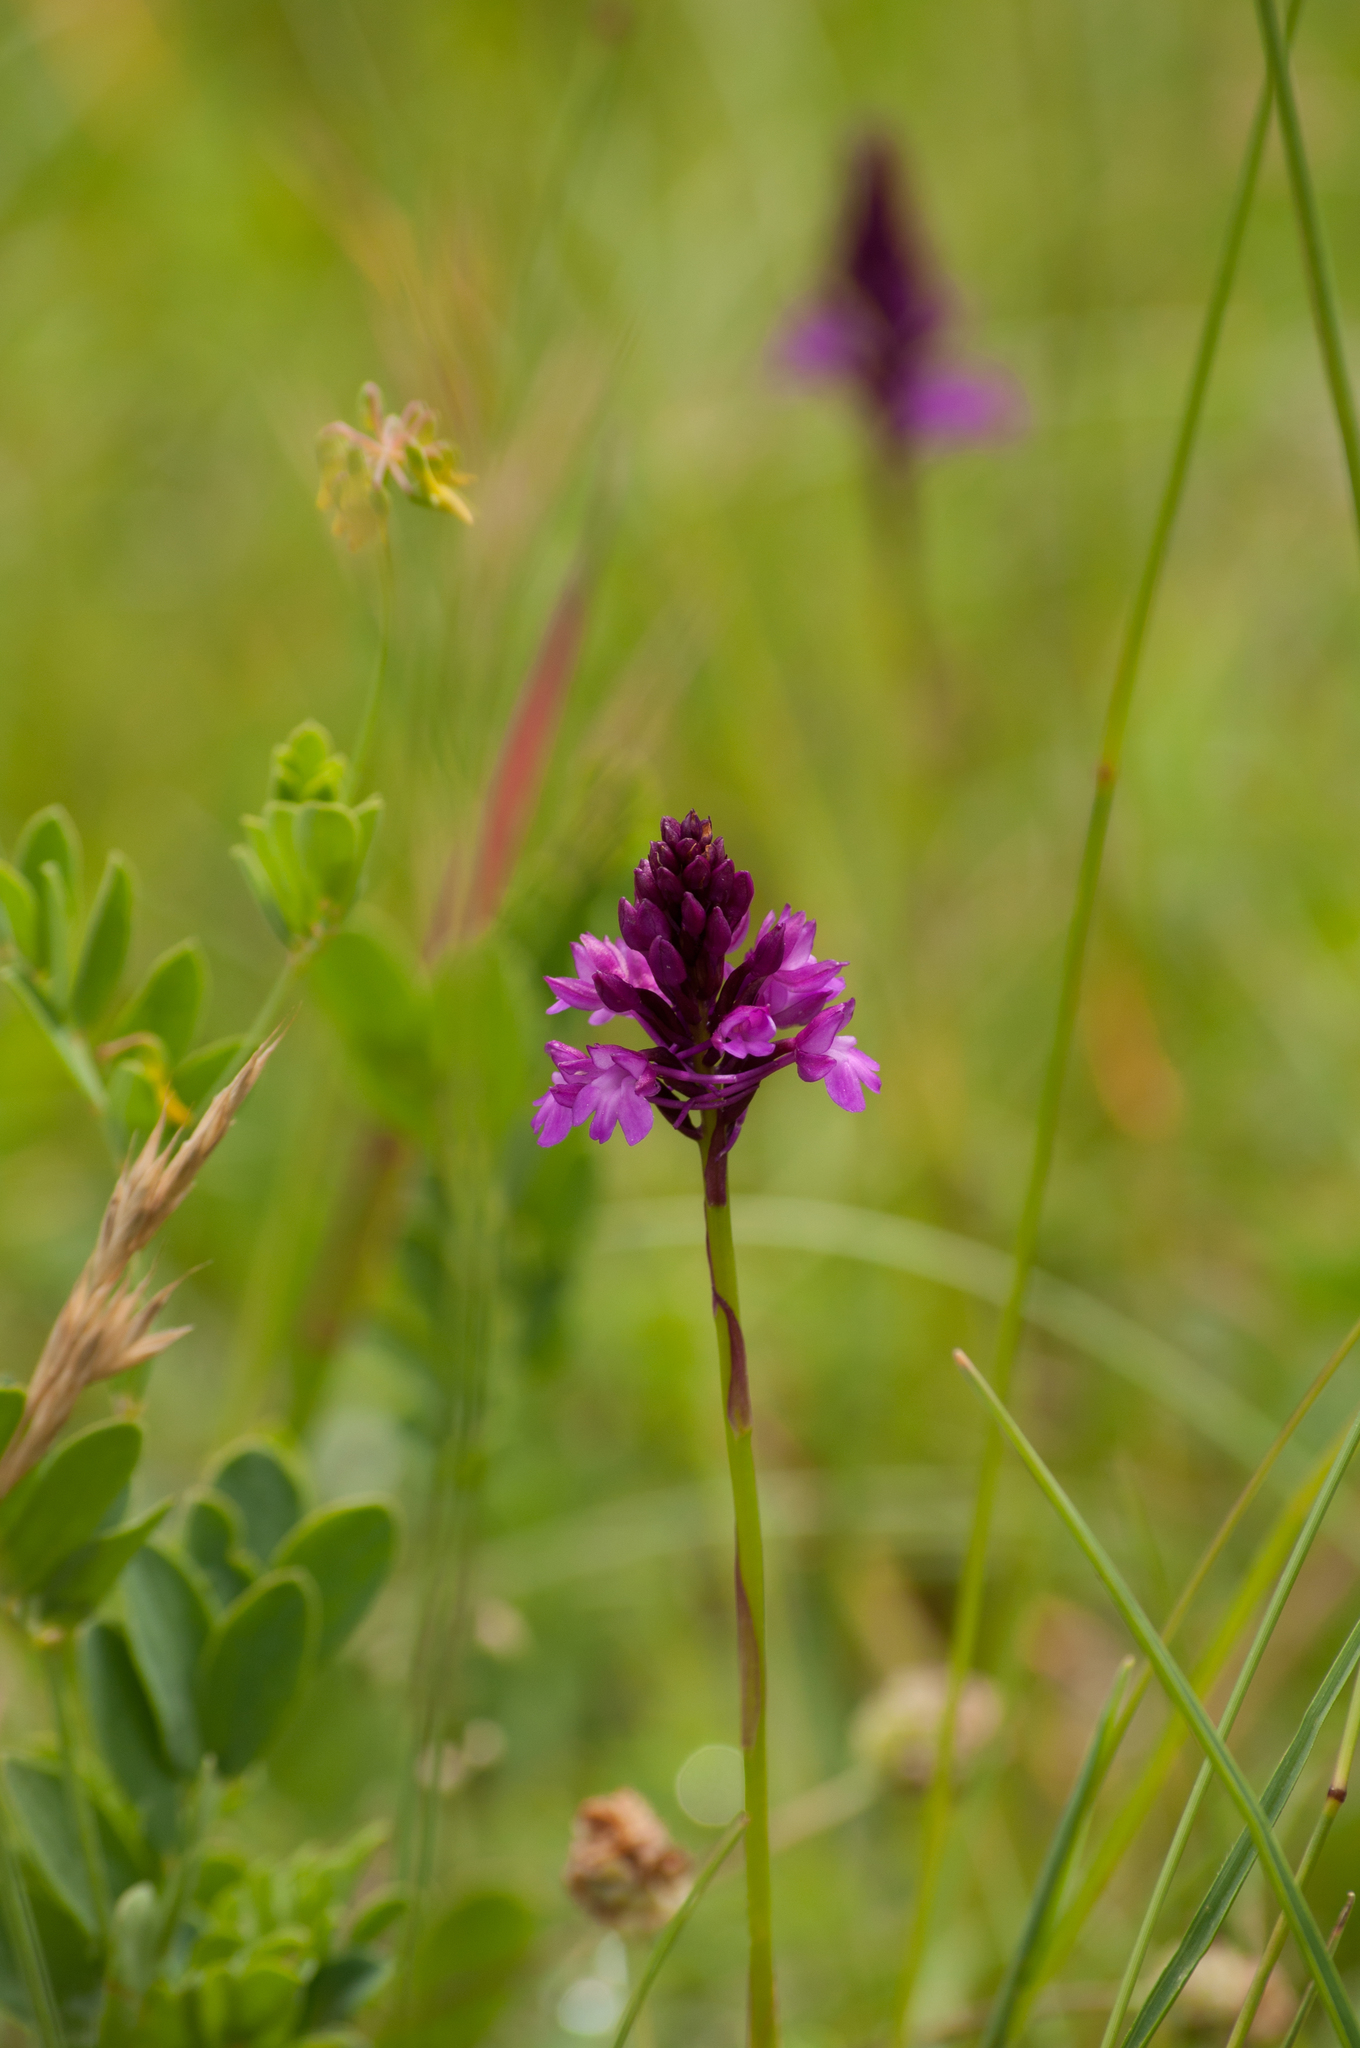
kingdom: Plantae
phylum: Tracheophyta
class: Liliopsida
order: Asparagales
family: Orchidaceae
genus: Anacamptis
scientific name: Anacamptis pyramidalis
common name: Pyramidal orchid
